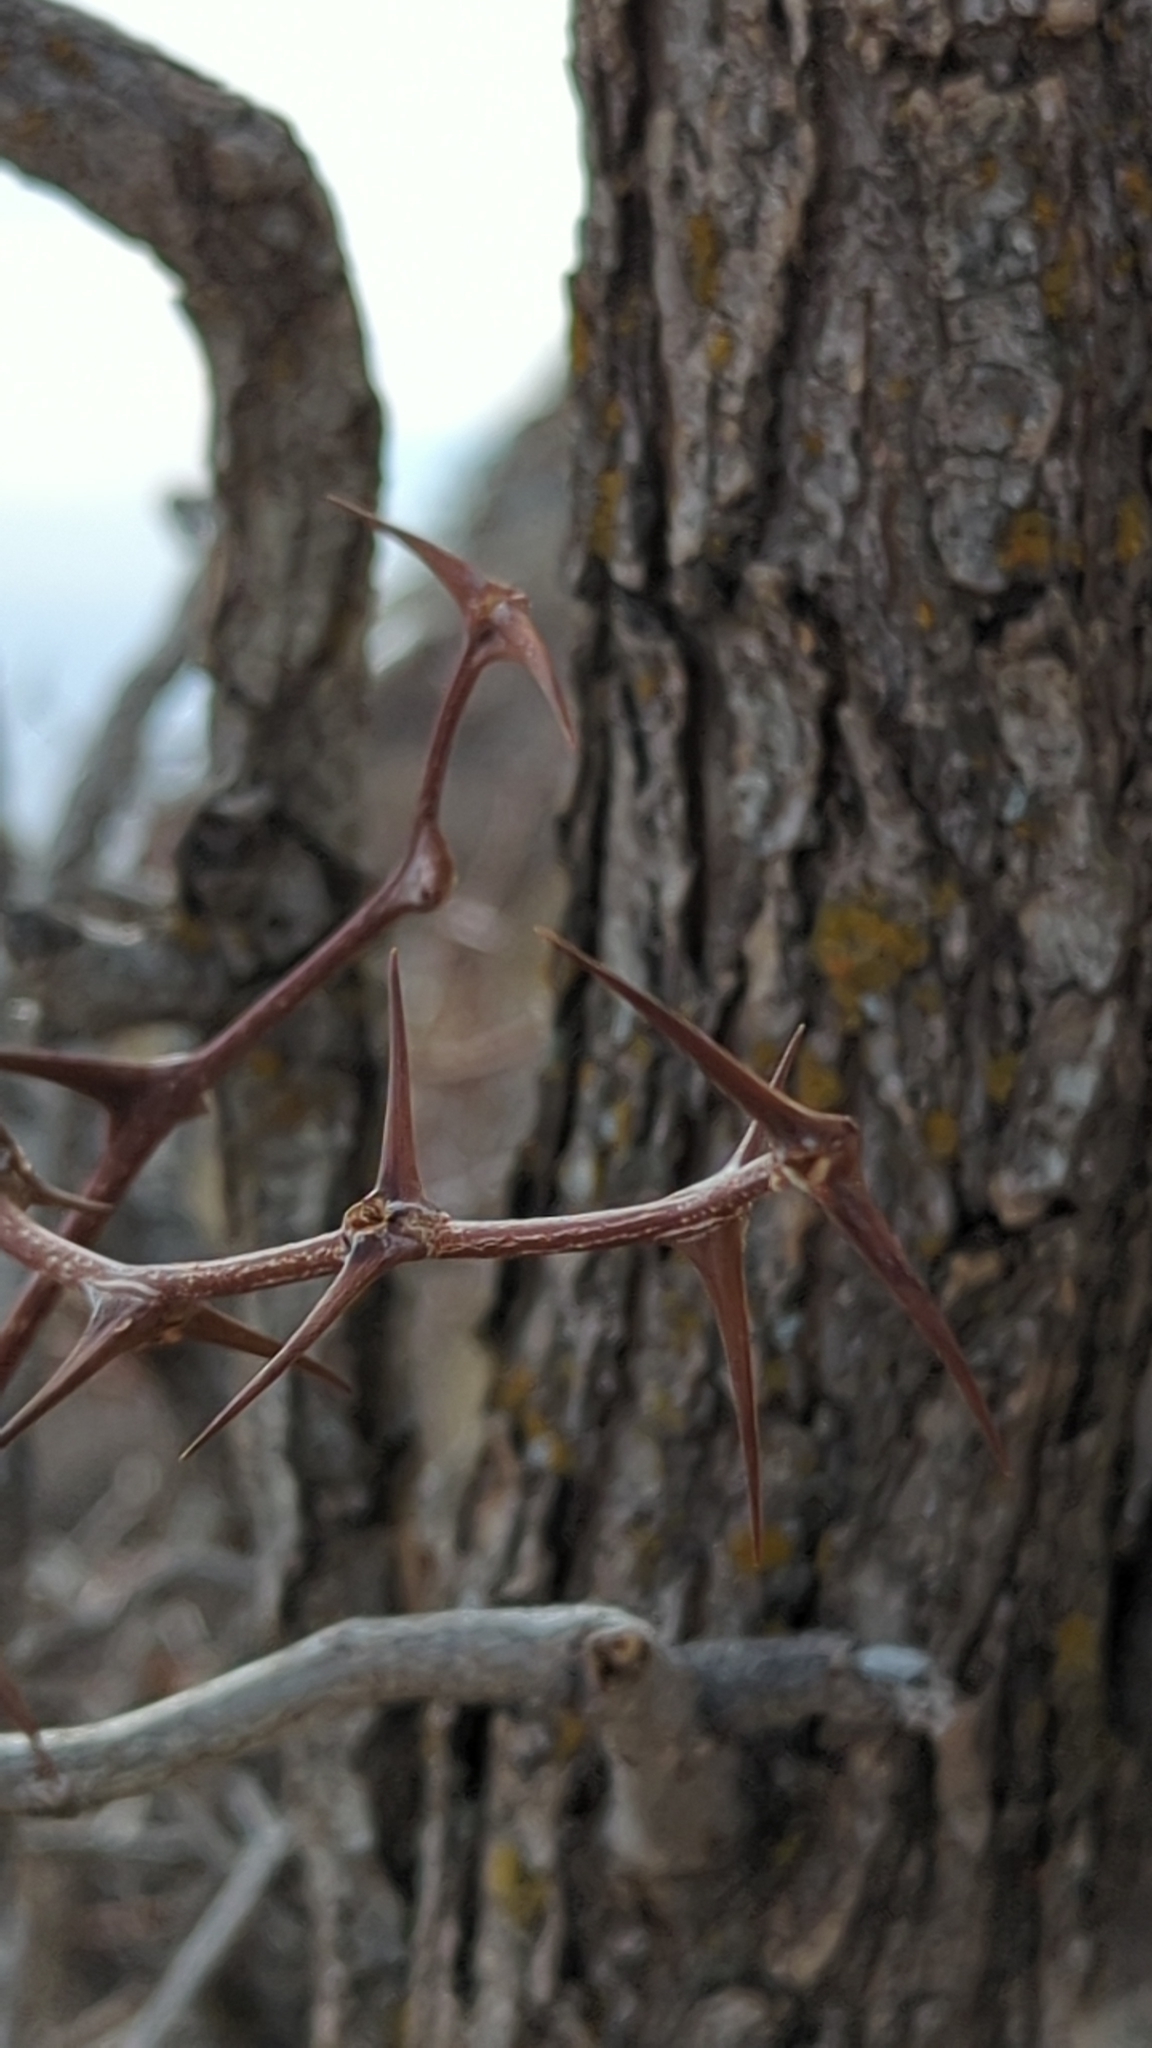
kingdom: Plantae
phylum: Tracheophyta
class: Magnoliopsida
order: Fabales
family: Fabaceae
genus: Robinia
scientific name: Robinia neomexicana
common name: New mexico locust
